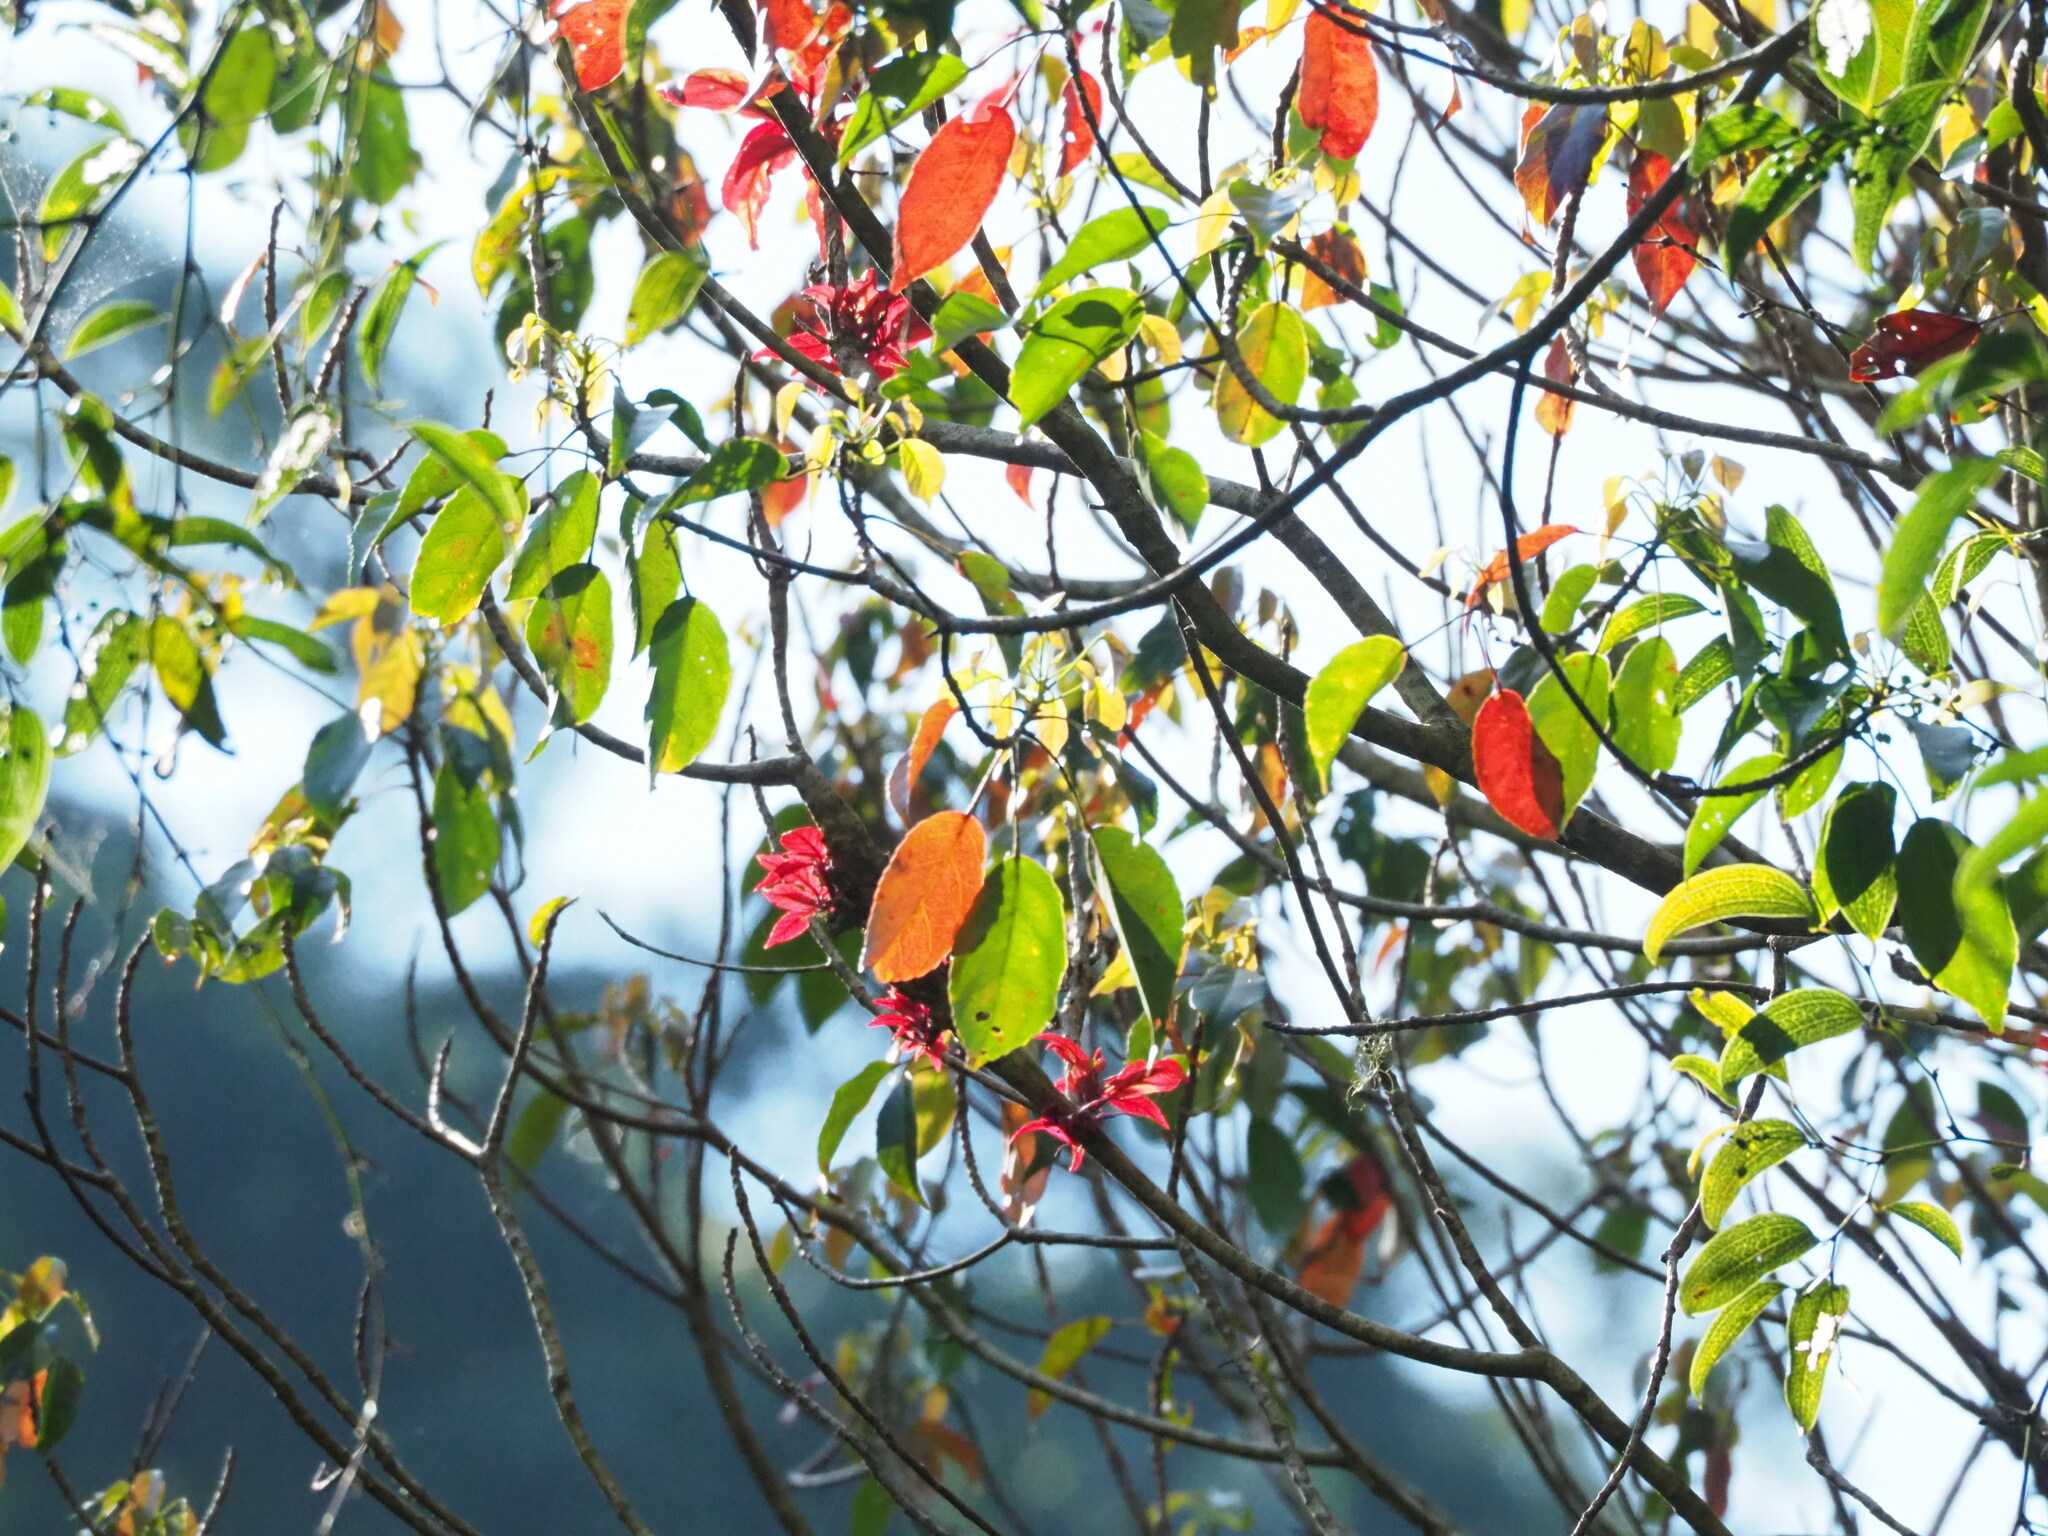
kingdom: Plantae
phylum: Tracheophyta
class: Magnoliopsida
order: Oxalidales
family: Elaeocarpaceae
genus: Elaeocarpus
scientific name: Elaeocarpus japonicus
